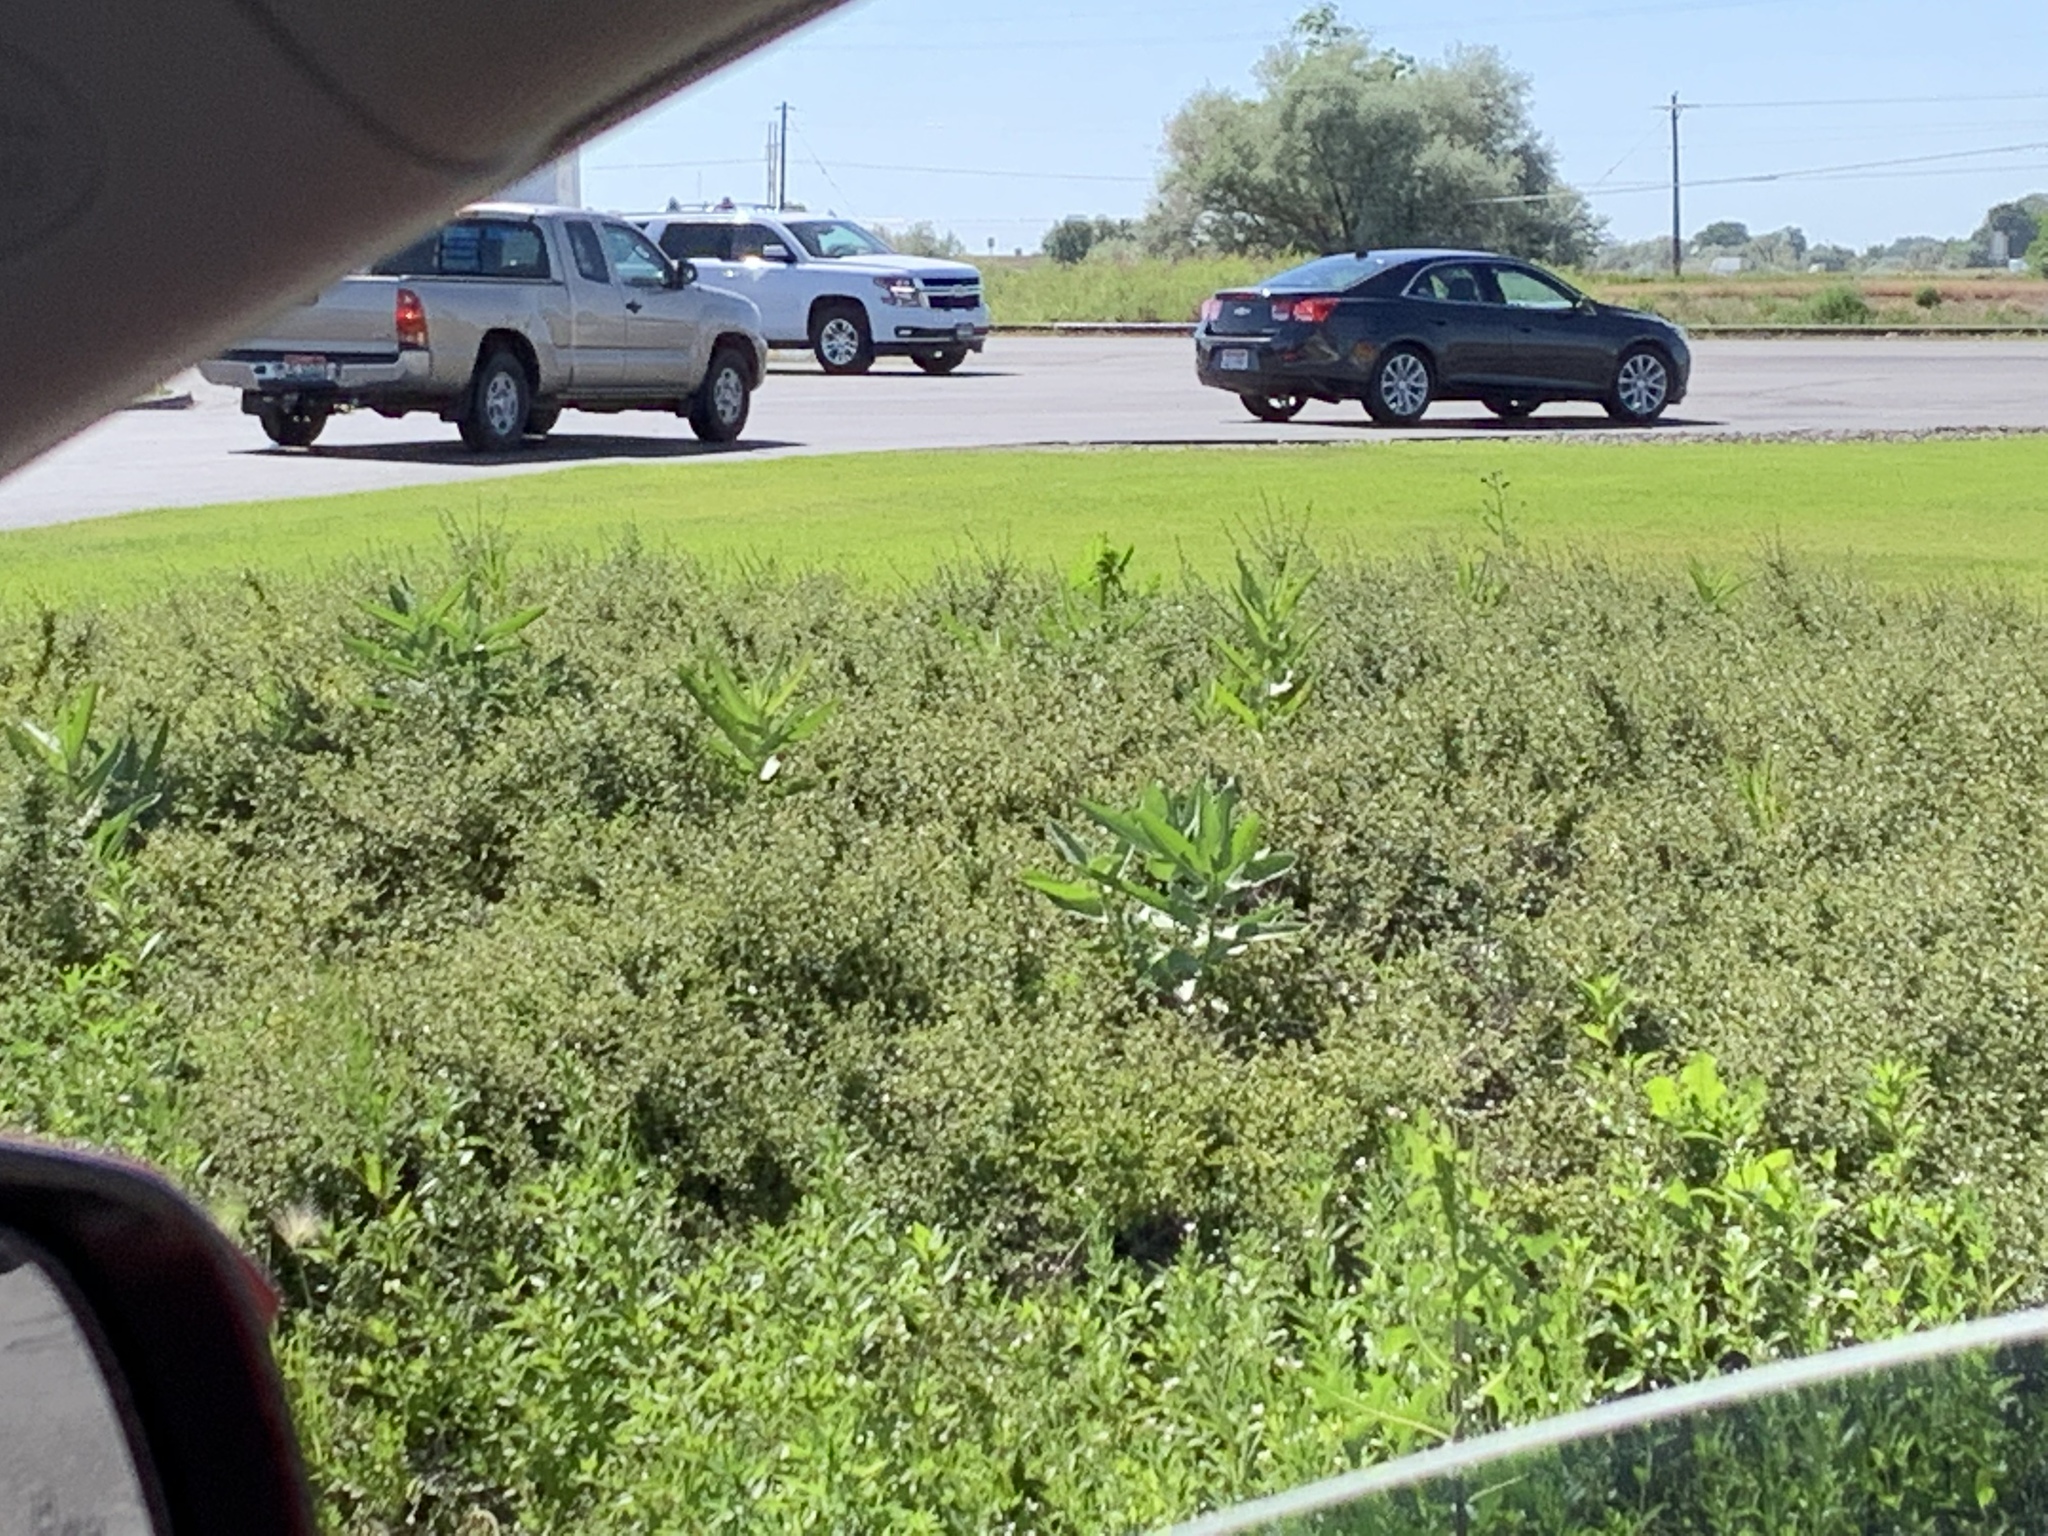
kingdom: Plantae
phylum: Tracheophyta
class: Magnoliopsida
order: Gentianales
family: Apocynaceae
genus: Asclepias
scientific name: Asclepias speciosa
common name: Showy milkweed
